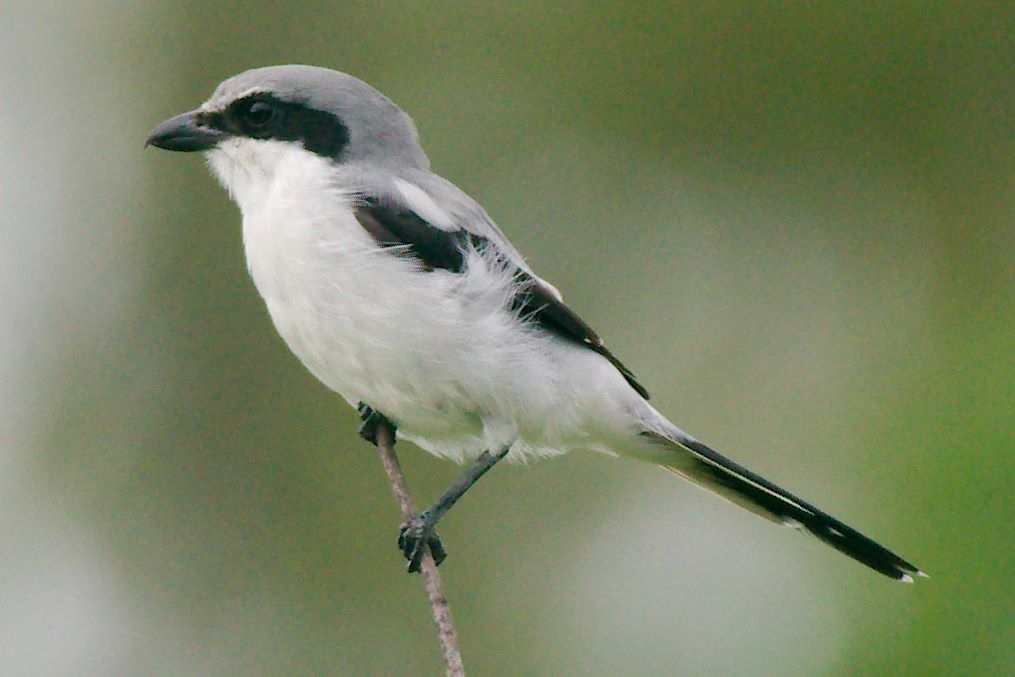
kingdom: Animalia
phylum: Chordata
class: Aves
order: Passeriformes
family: Laniidae
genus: Lanius
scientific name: Lanius ludovicianus
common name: Loggerhead shrike
